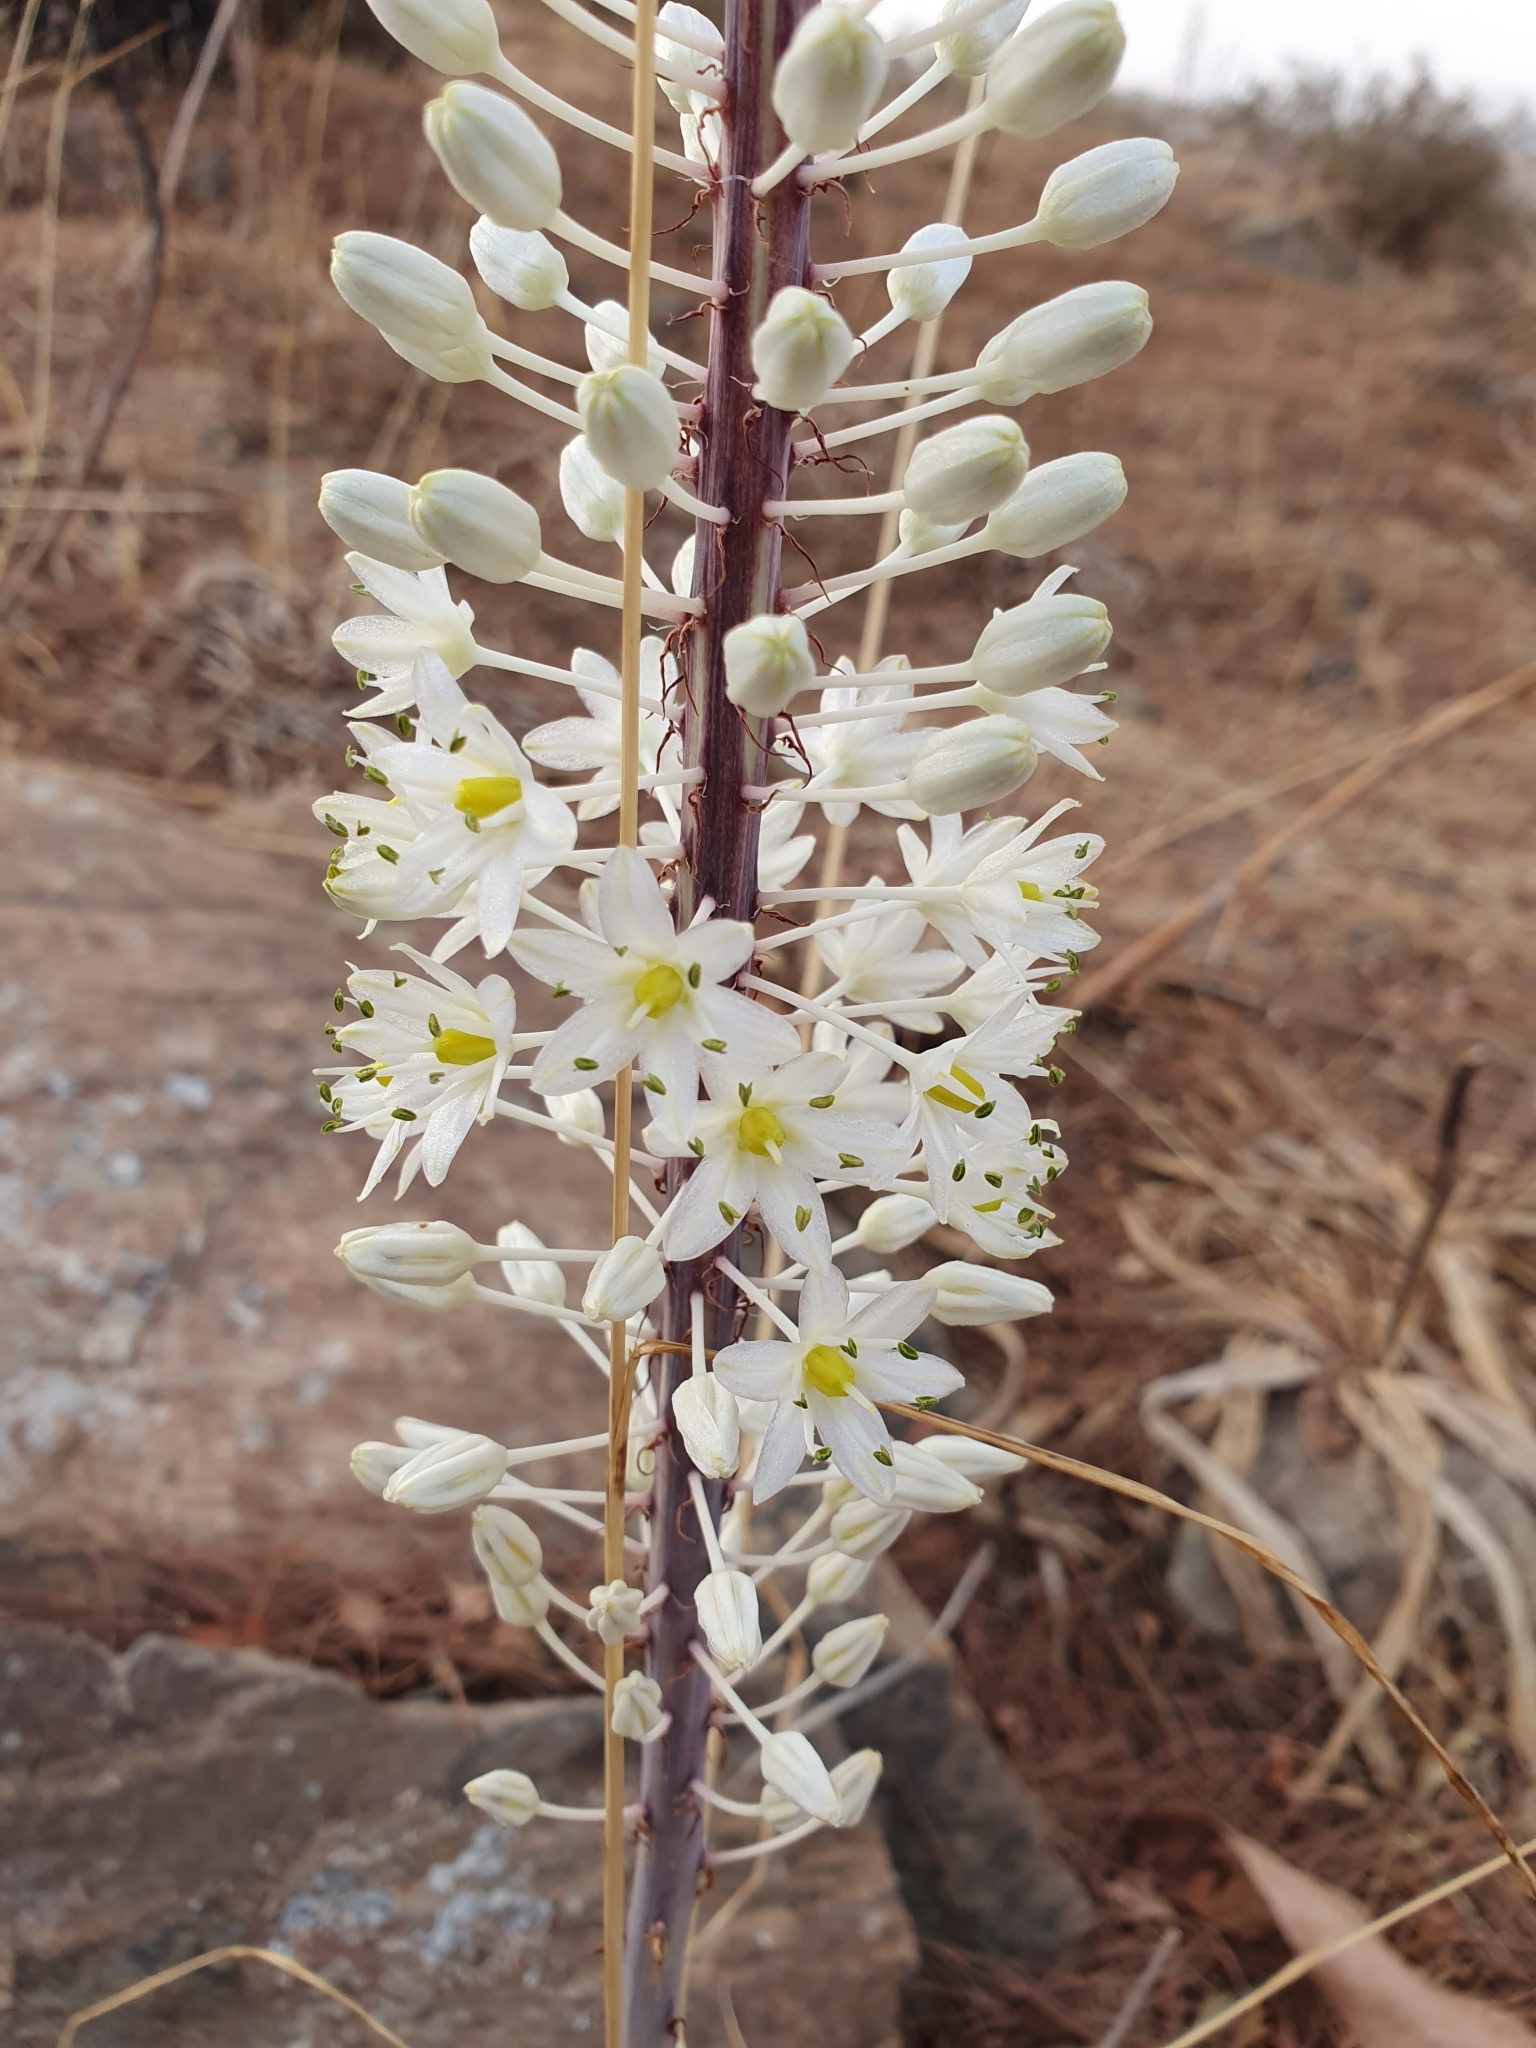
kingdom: Plantae
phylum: Tracheophyta
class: Liliopsida
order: Asparagales
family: Asparagaceae
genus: Drimia
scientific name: Drimia numidica
